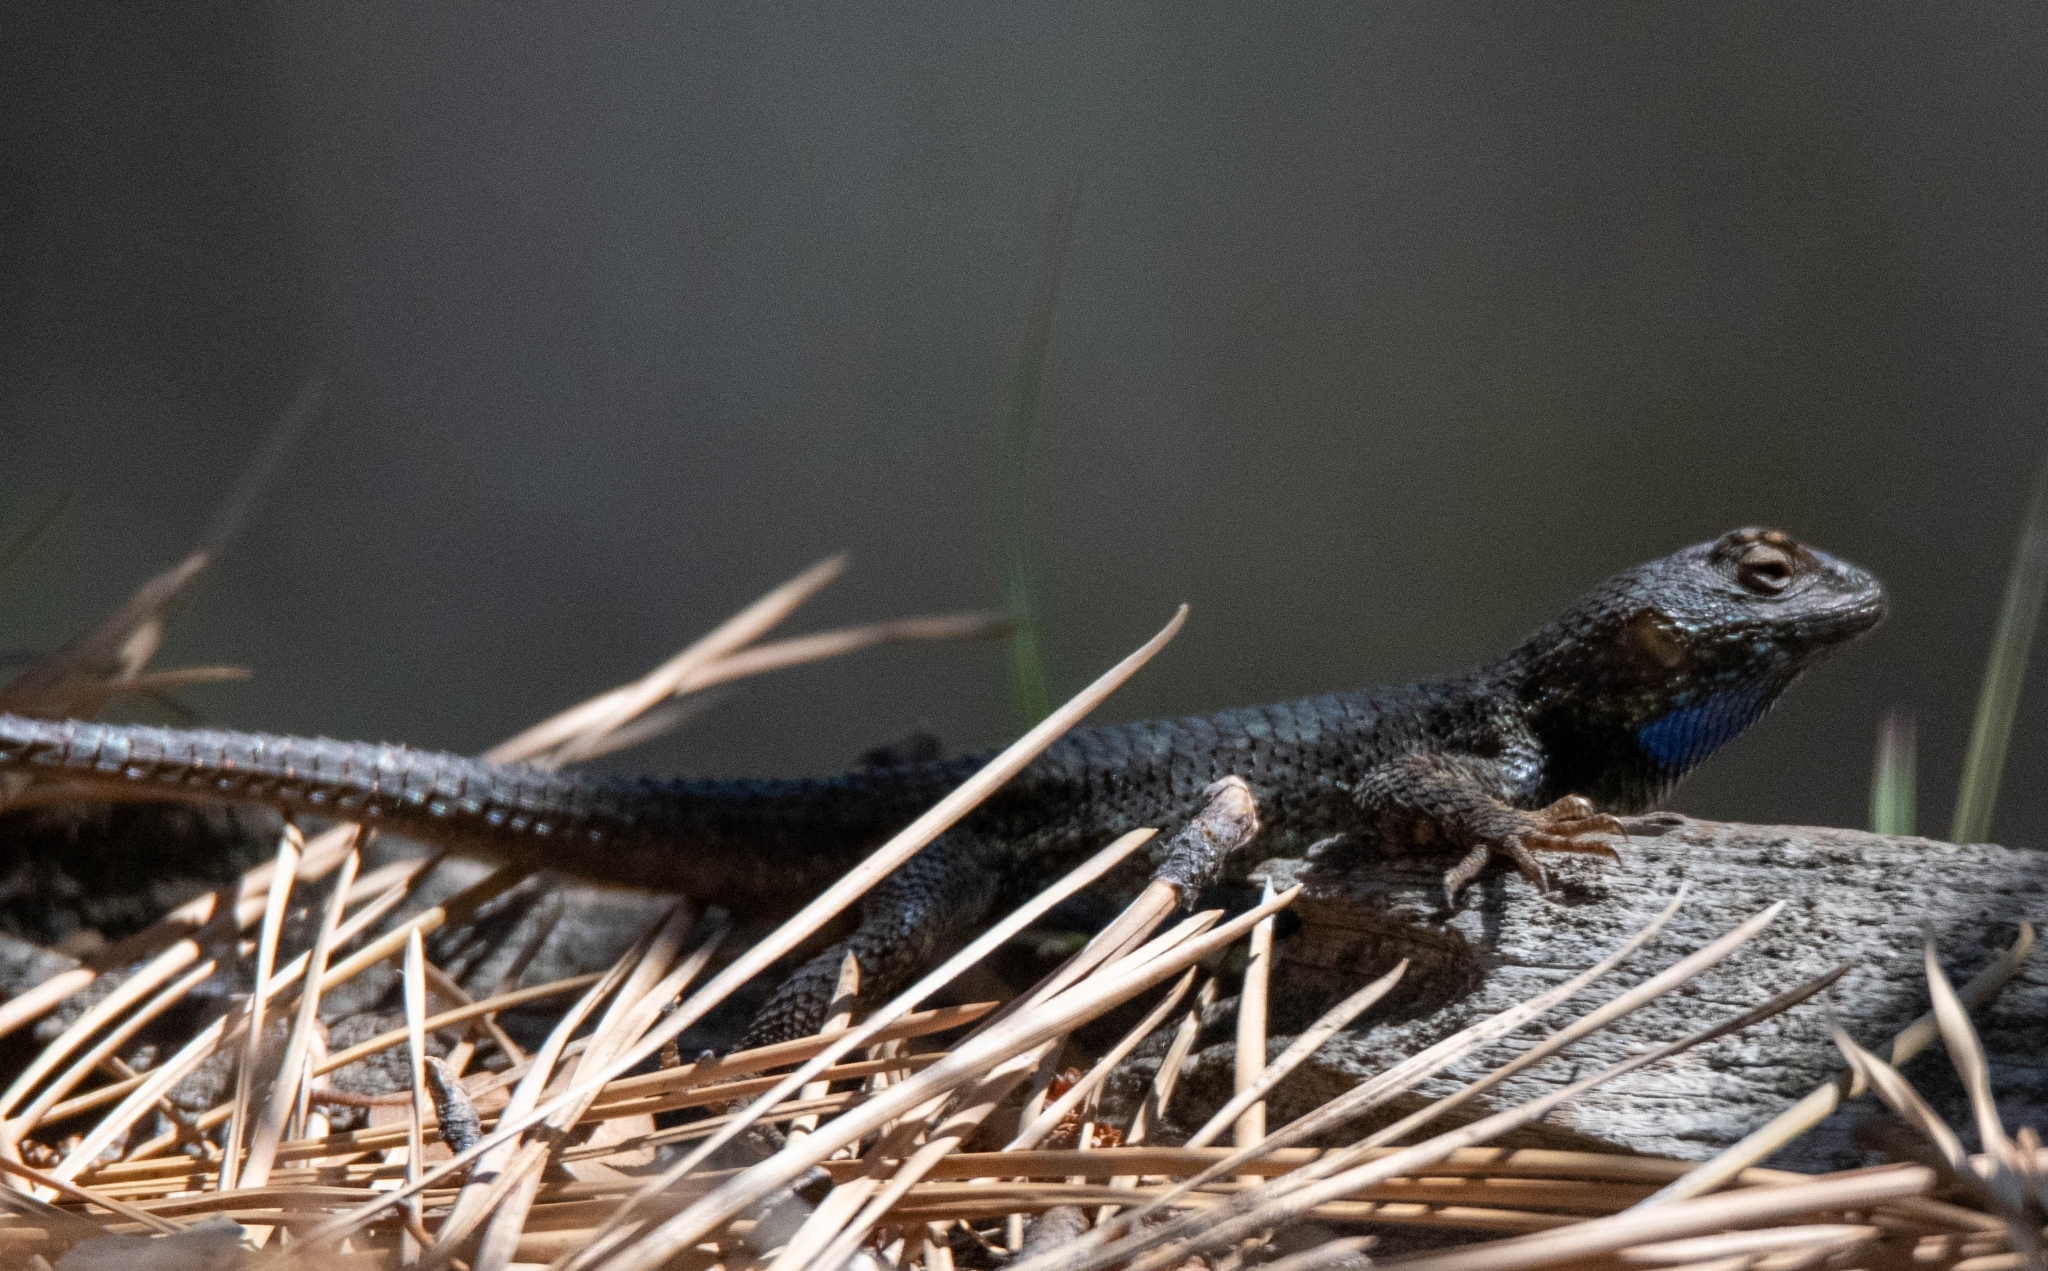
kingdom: Animalia
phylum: Chordata
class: Squamata
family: Phrynosomatidae
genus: Sceloporus
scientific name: Sceloporus occidentalis
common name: Western fence lizard
